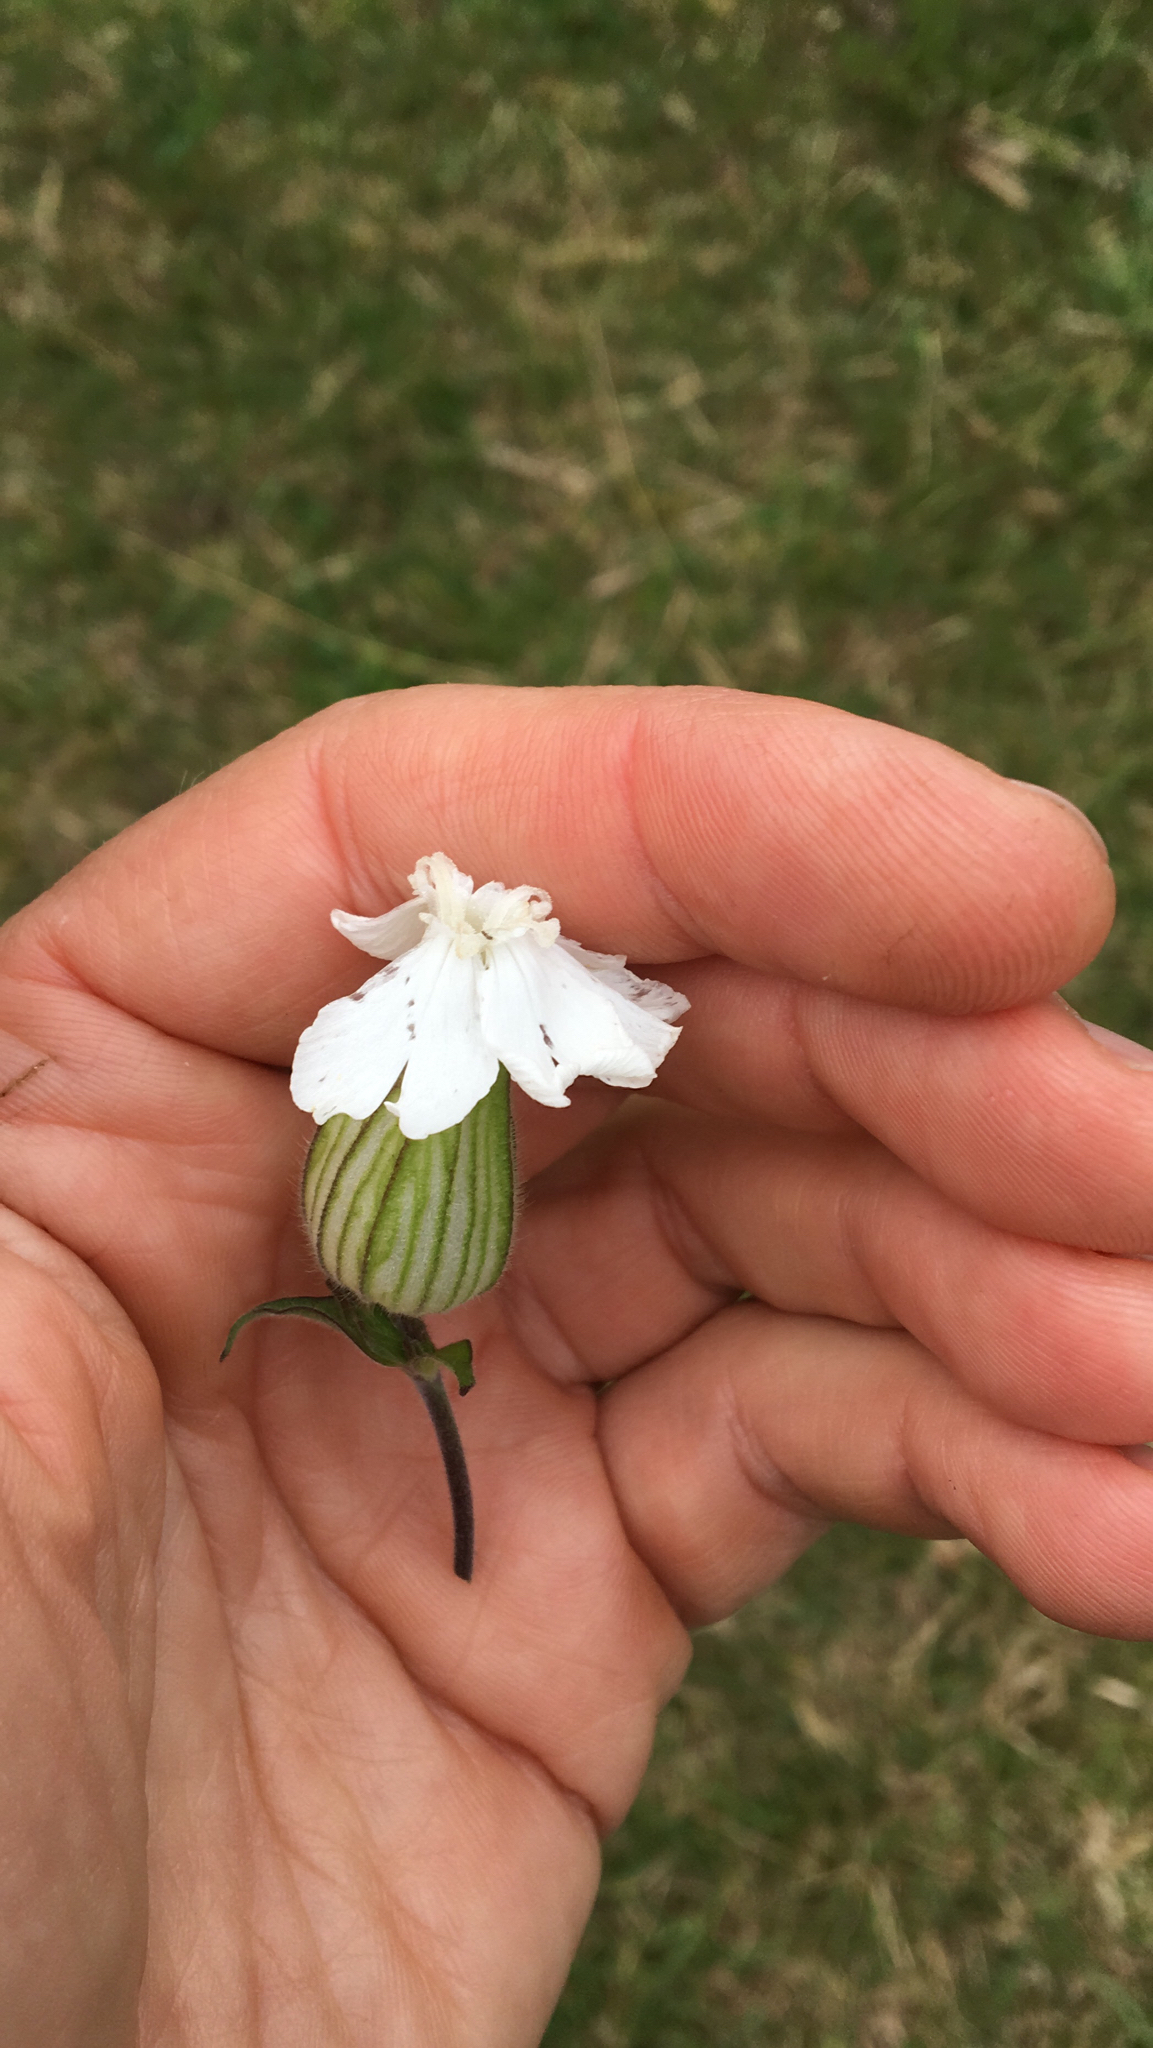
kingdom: Plantae
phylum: Tracheophyta
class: Magnoliopsida
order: Caryophyllales
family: Caryophyllaceae
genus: Silene
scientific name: Silene latifolia
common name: White campion
